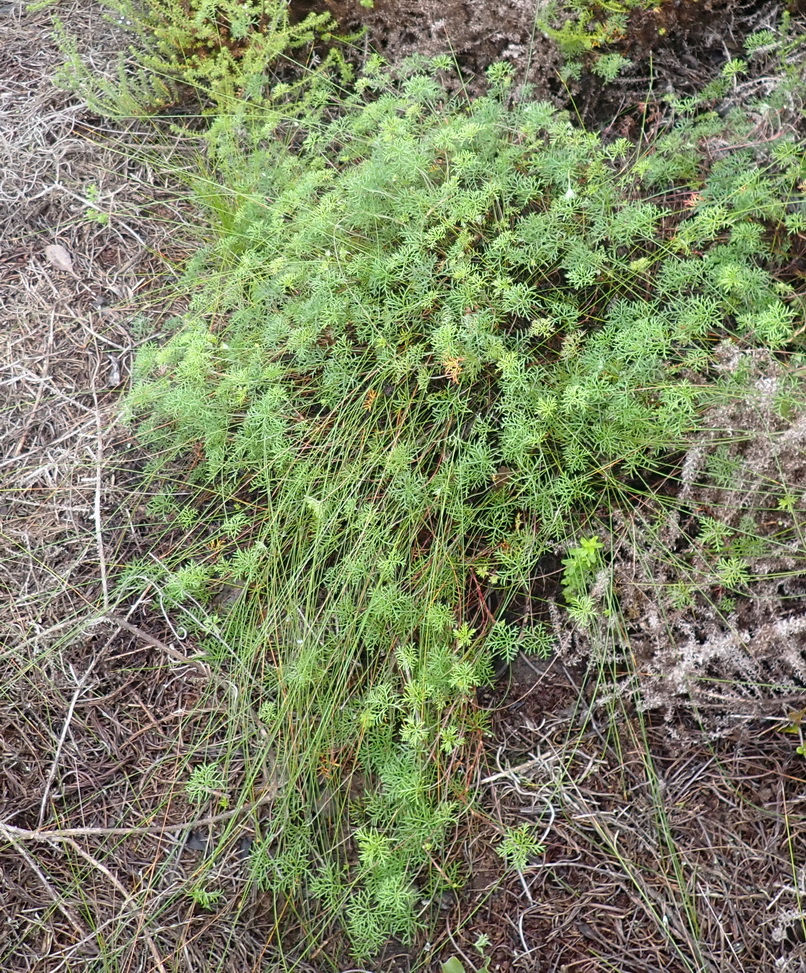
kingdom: Plantae
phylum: Tracheophyta
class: Magnoliopsida
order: Geraniales
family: Geraniaceae
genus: Geranium
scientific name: Geranium incanum
